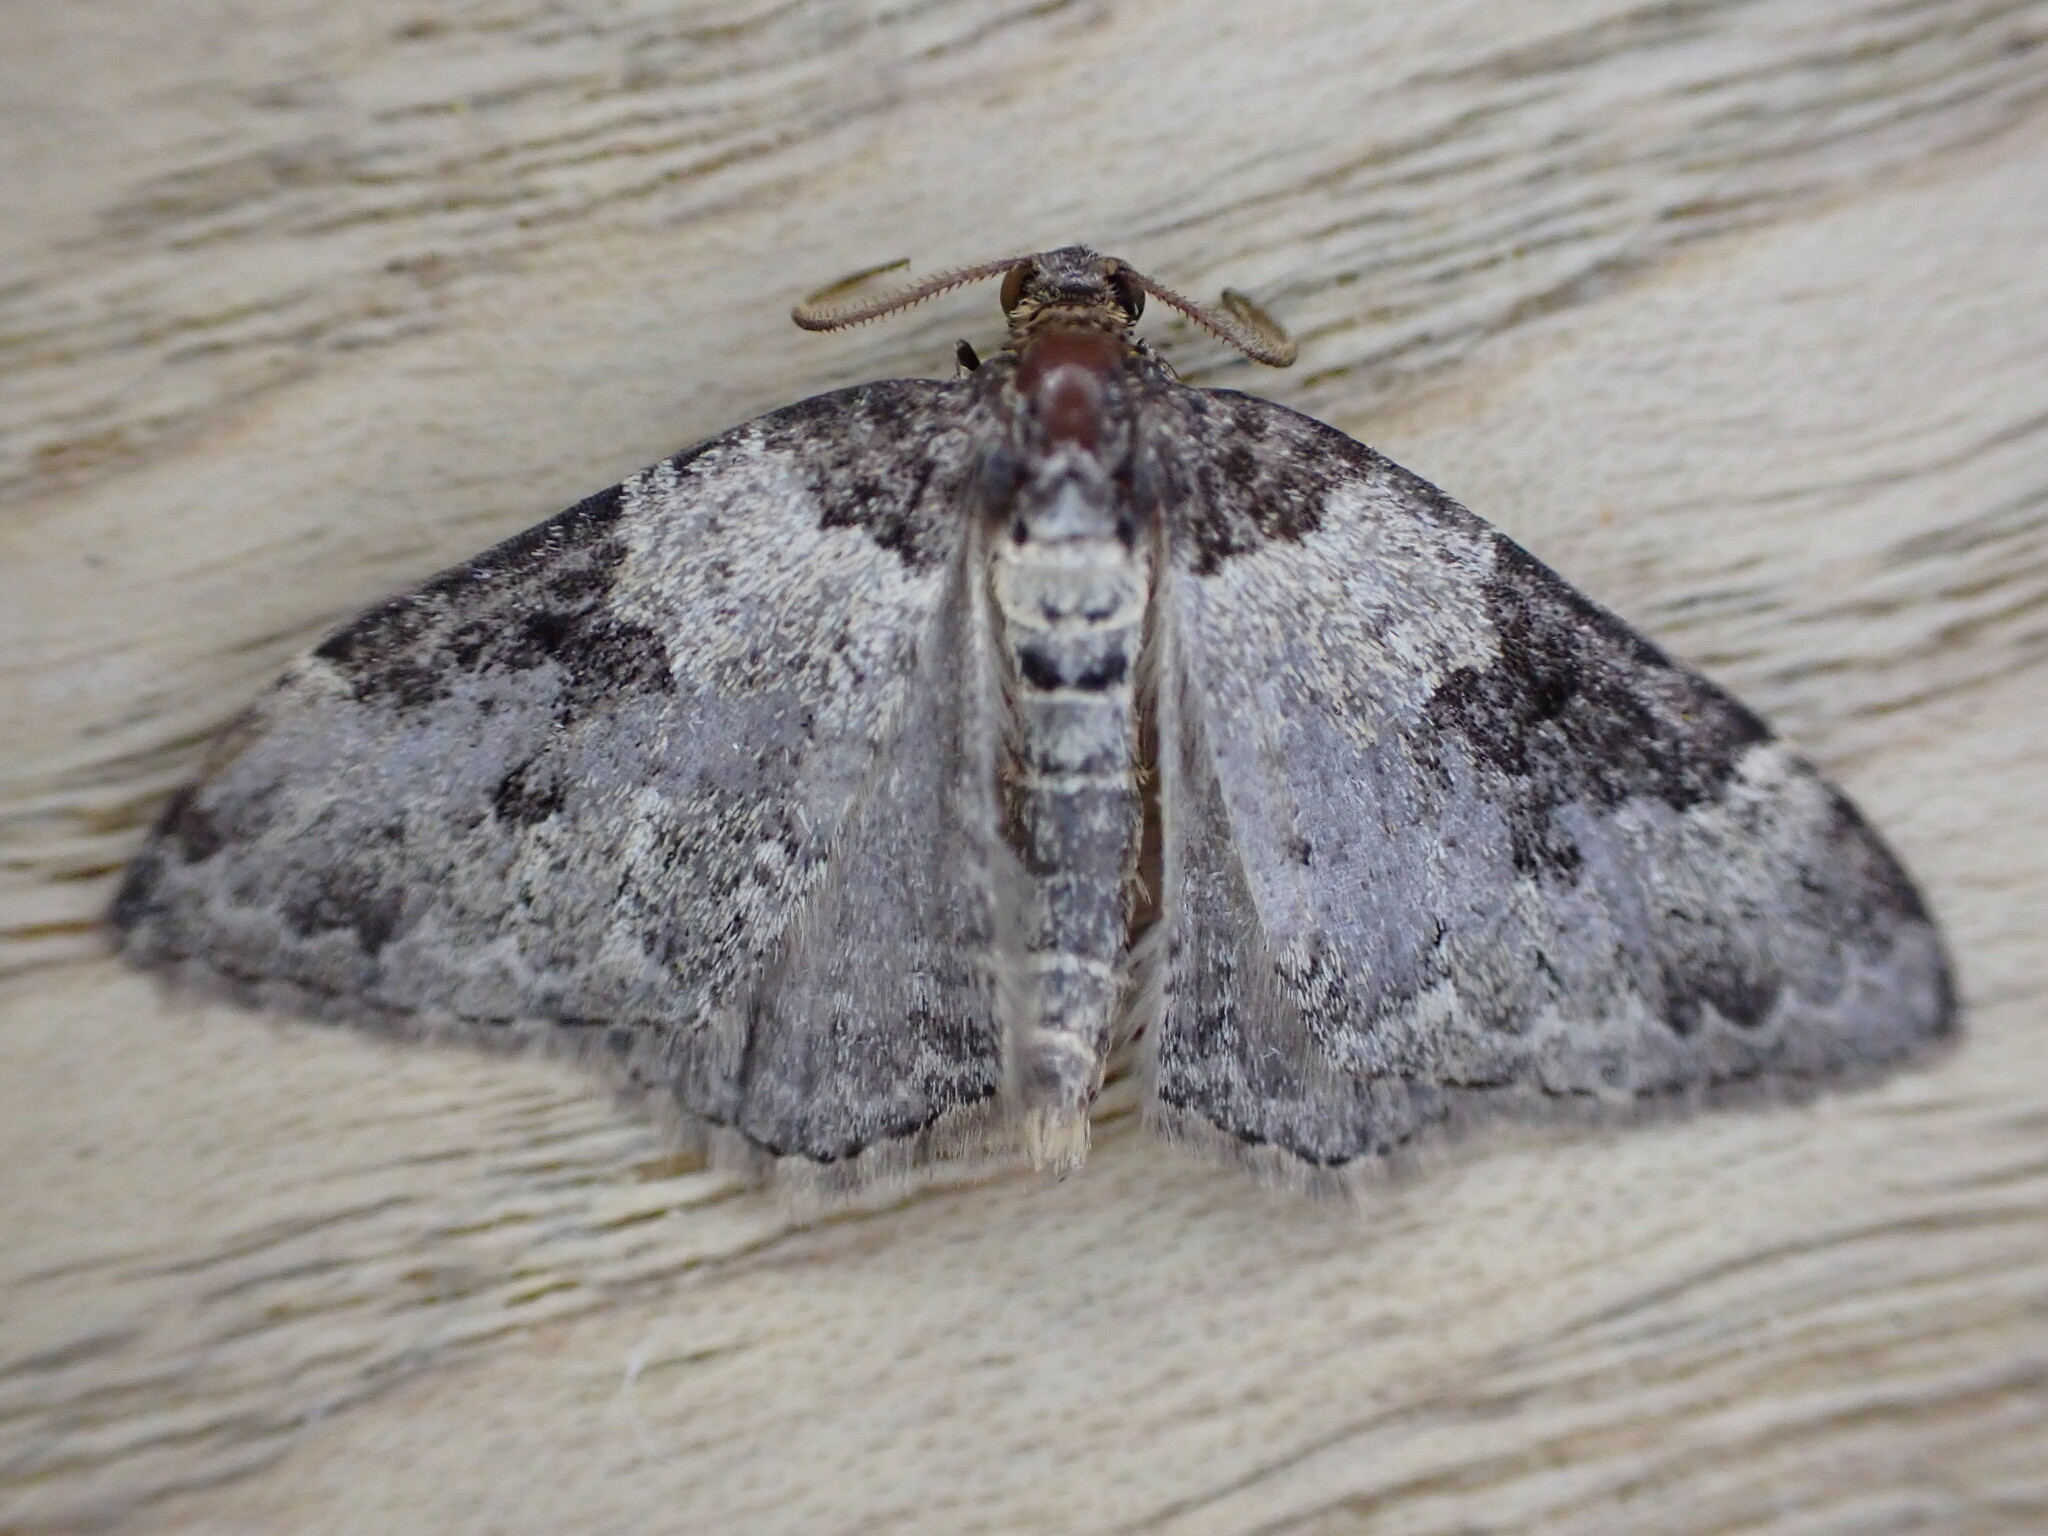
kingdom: Animalia
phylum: Arthropoda
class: Insecta
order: Lepidoptera
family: Geometridae
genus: Xanthorhoe
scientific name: Xanthorhoe fluctuata
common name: Garden carpet
